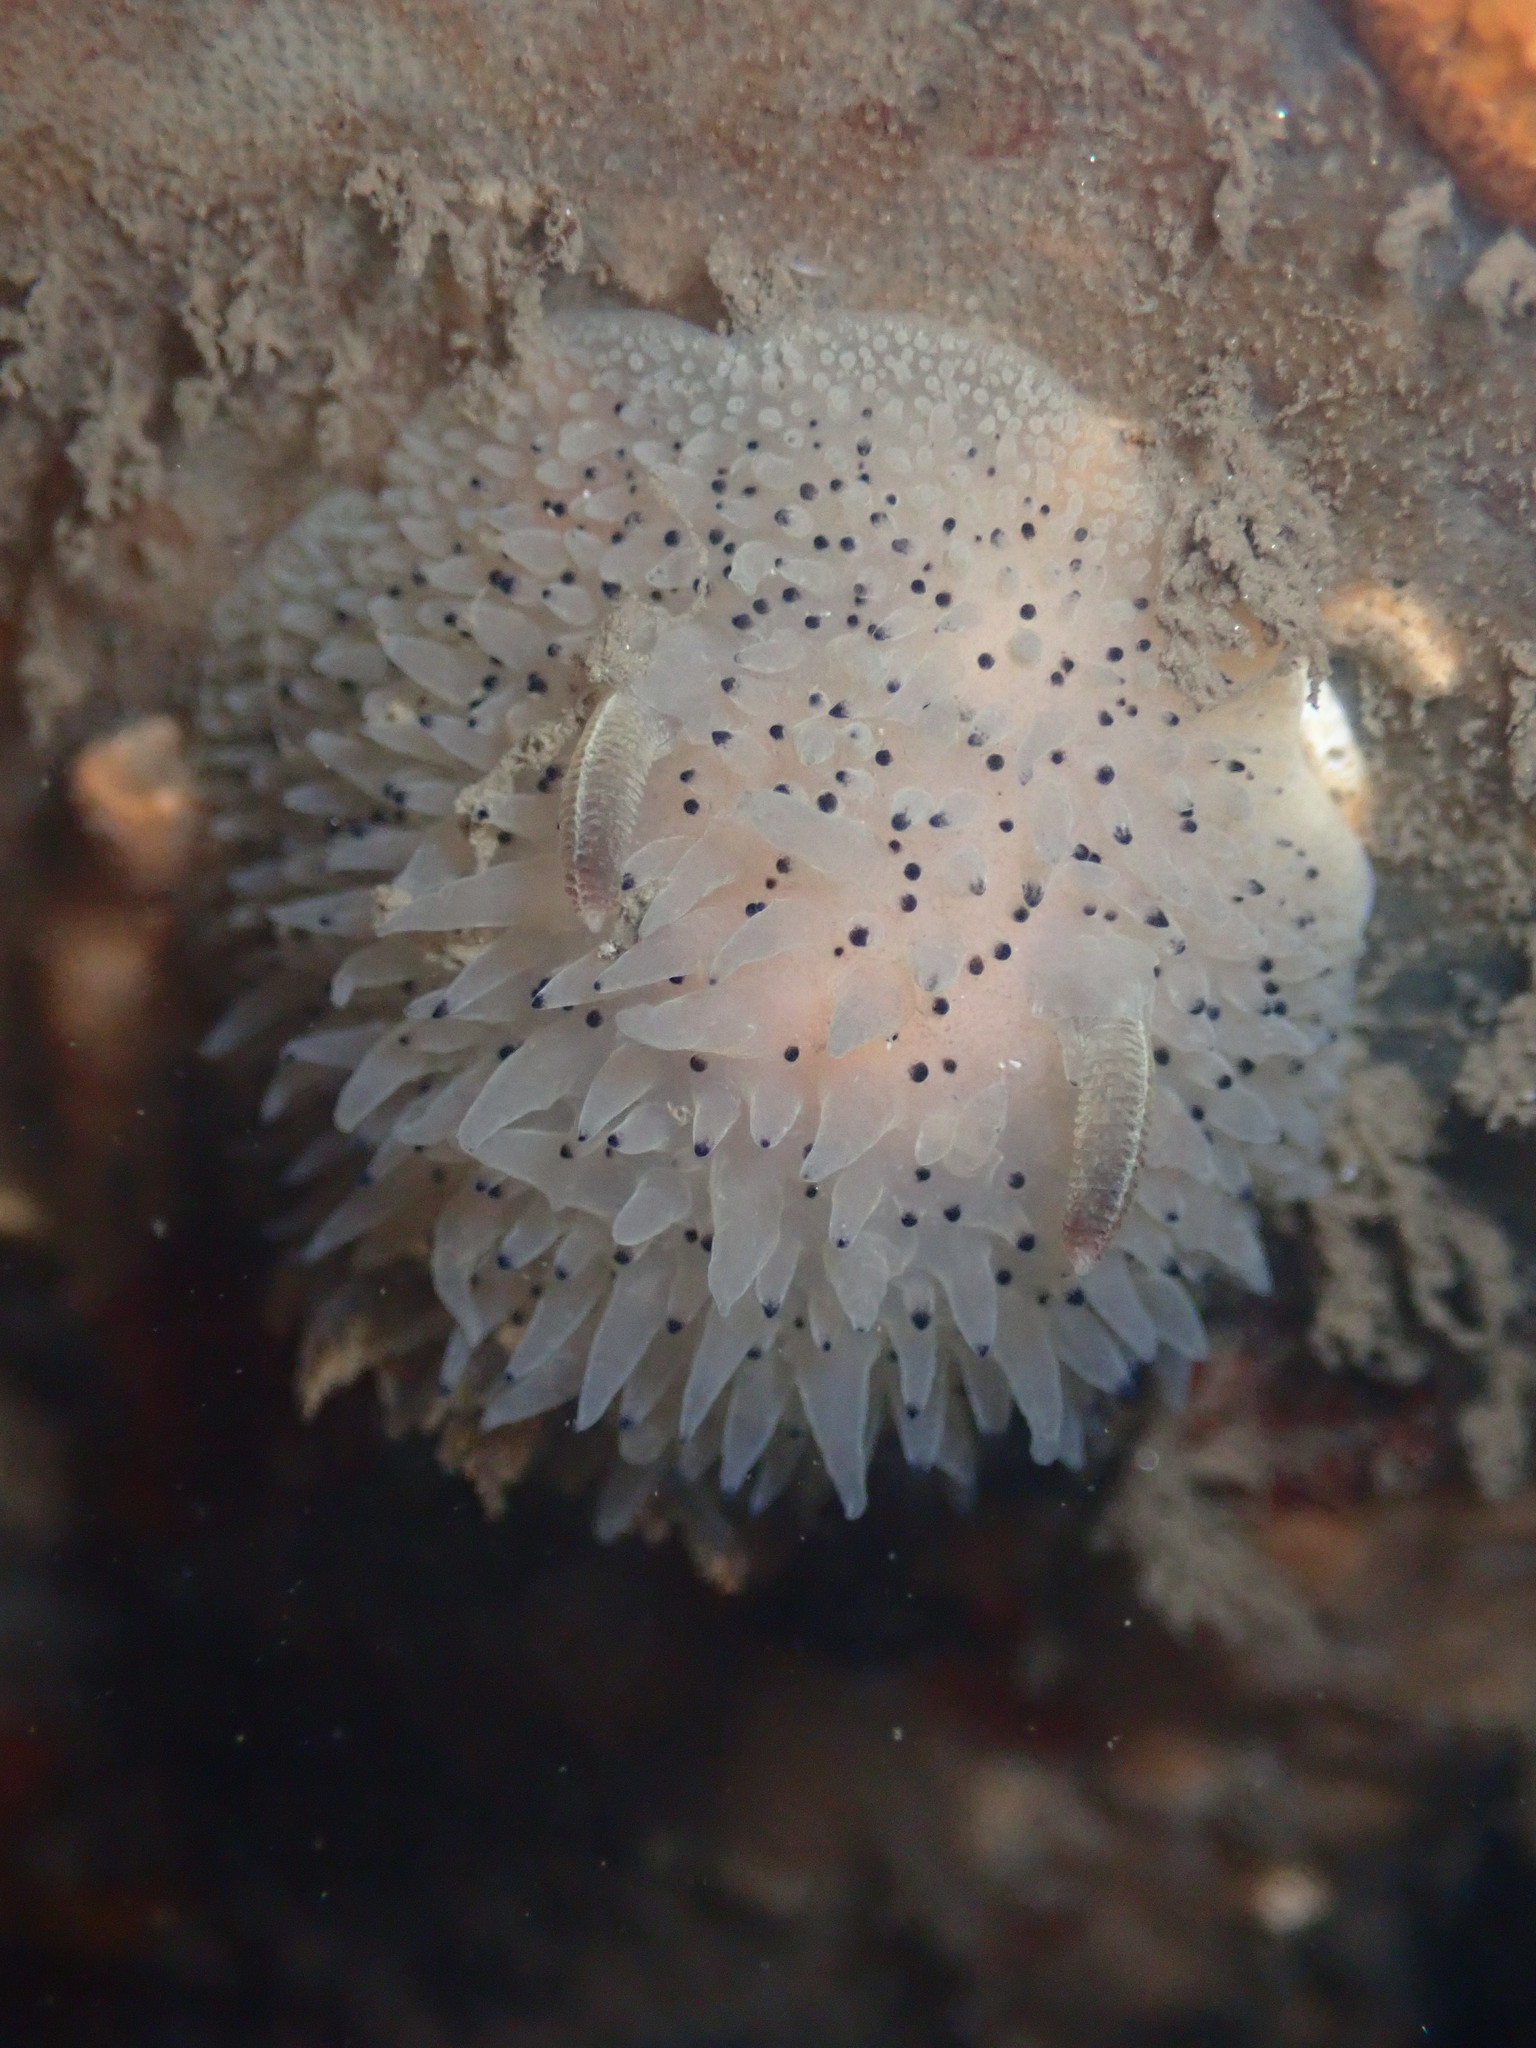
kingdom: Animalia
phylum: Mollusca
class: Gastropoda
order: Nudibranchia
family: Onchidorididae
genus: Acanthodoris
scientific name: Acanthodoris rhodoceras
